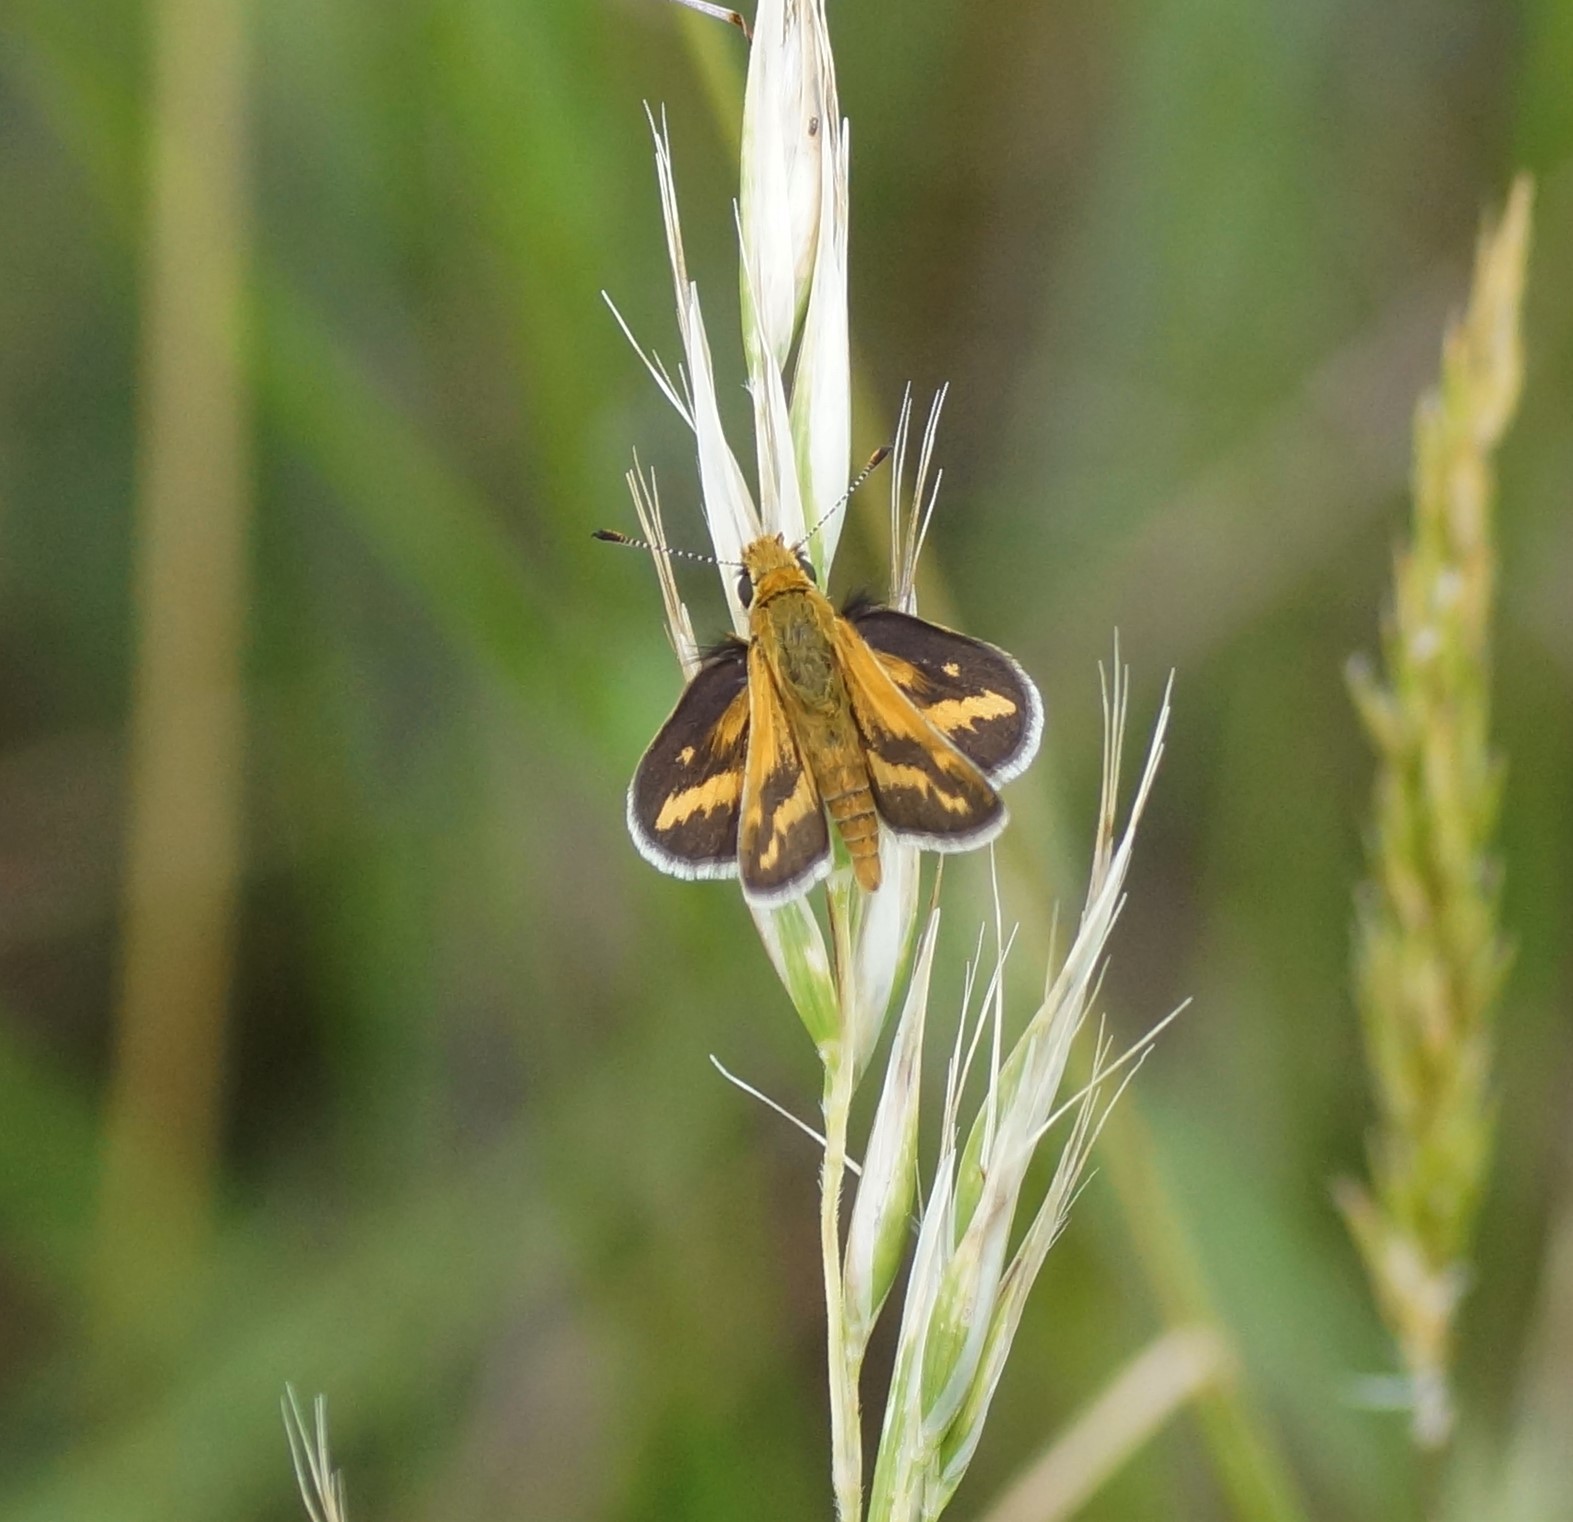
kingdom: Animalia
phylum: Arthropoda
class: Insecta
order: Lepidoptera
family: Hesperiidae
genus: Taractrocera
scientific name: Taractrocera papyria
